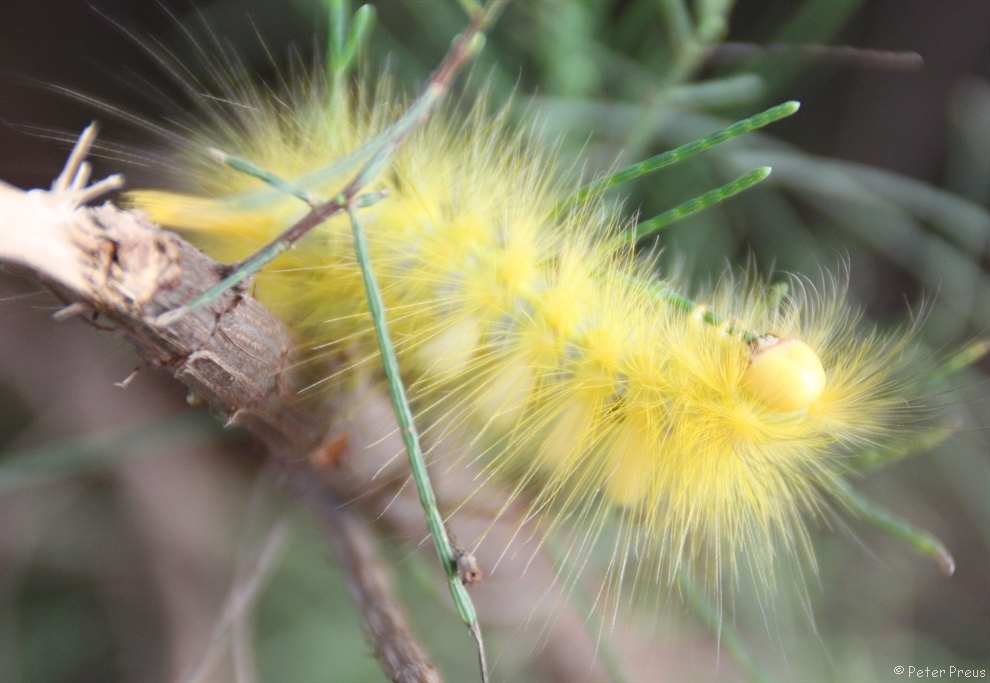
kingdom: Animalia
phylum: Arthropoda
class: Insecta
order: Lepidoptera
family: Erebidae
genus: Calliteara
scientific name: Calliteara horsfieldii
